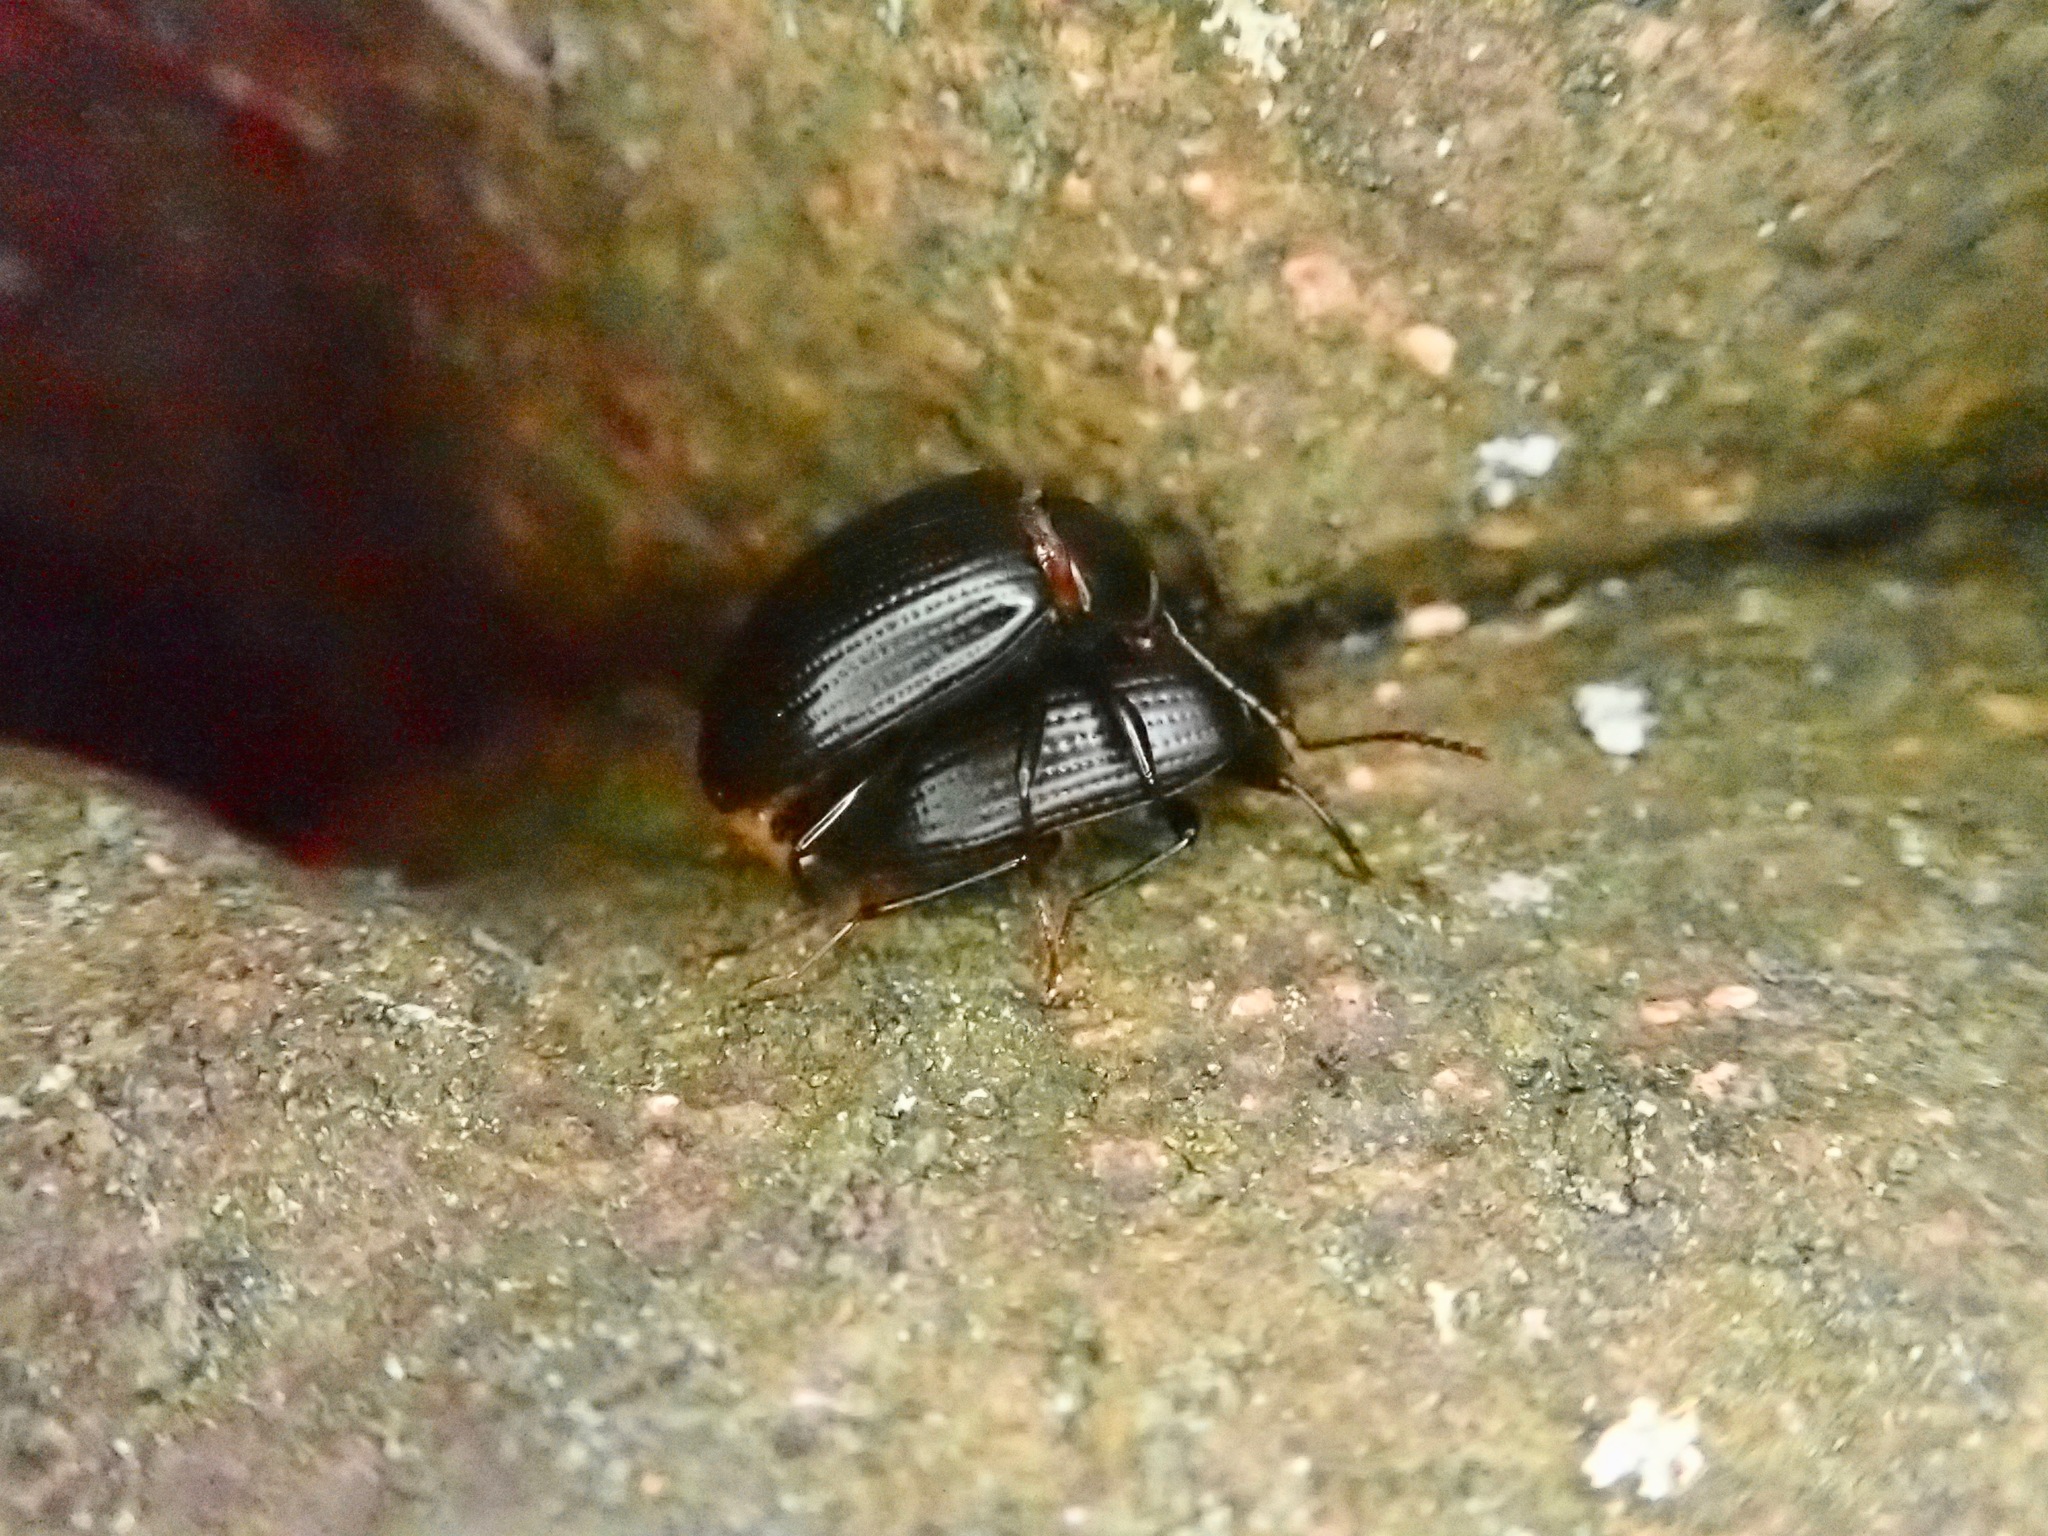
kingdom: Animalia
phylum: Arthropoda
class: Insecta
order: Coleoptera
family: Tenebrionidae
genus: Amarygmus
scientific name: Amarygmus
